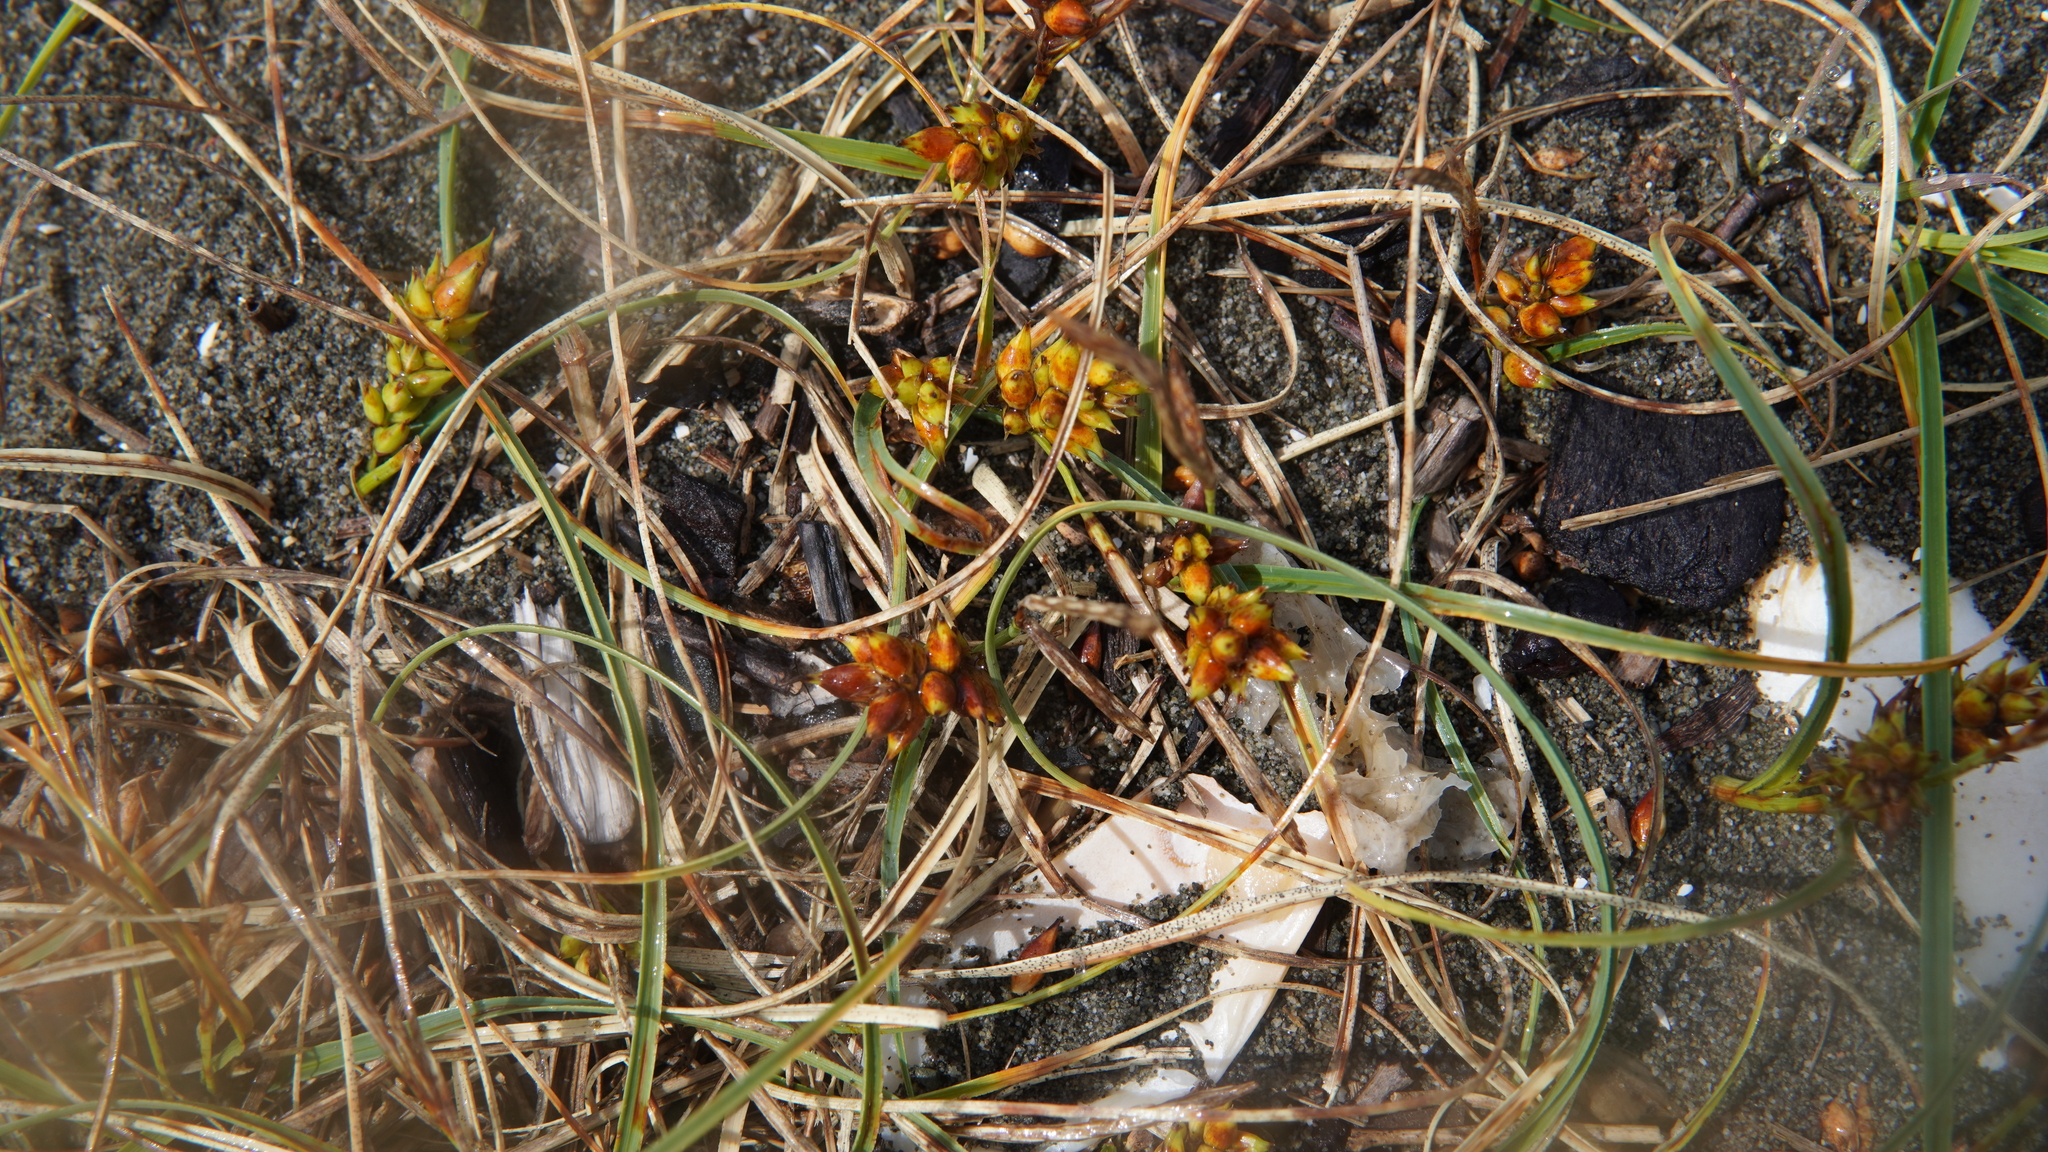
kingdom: Plantae
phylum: Tracheophyta
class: Liliopsida
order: Poales
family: Cyperaceae
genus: Carex
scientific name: Carex pumila
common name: Dwarf sedge
